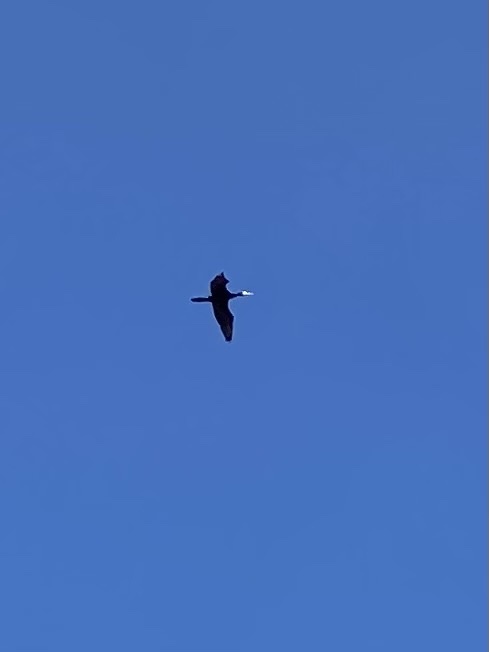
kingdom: Animalia
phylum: Chordata
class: Aves
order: Suliformes
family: Phalacrocoracidae
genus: Phalacrocorax
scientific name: Phalacrocorax carbo
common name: Great cormorant
